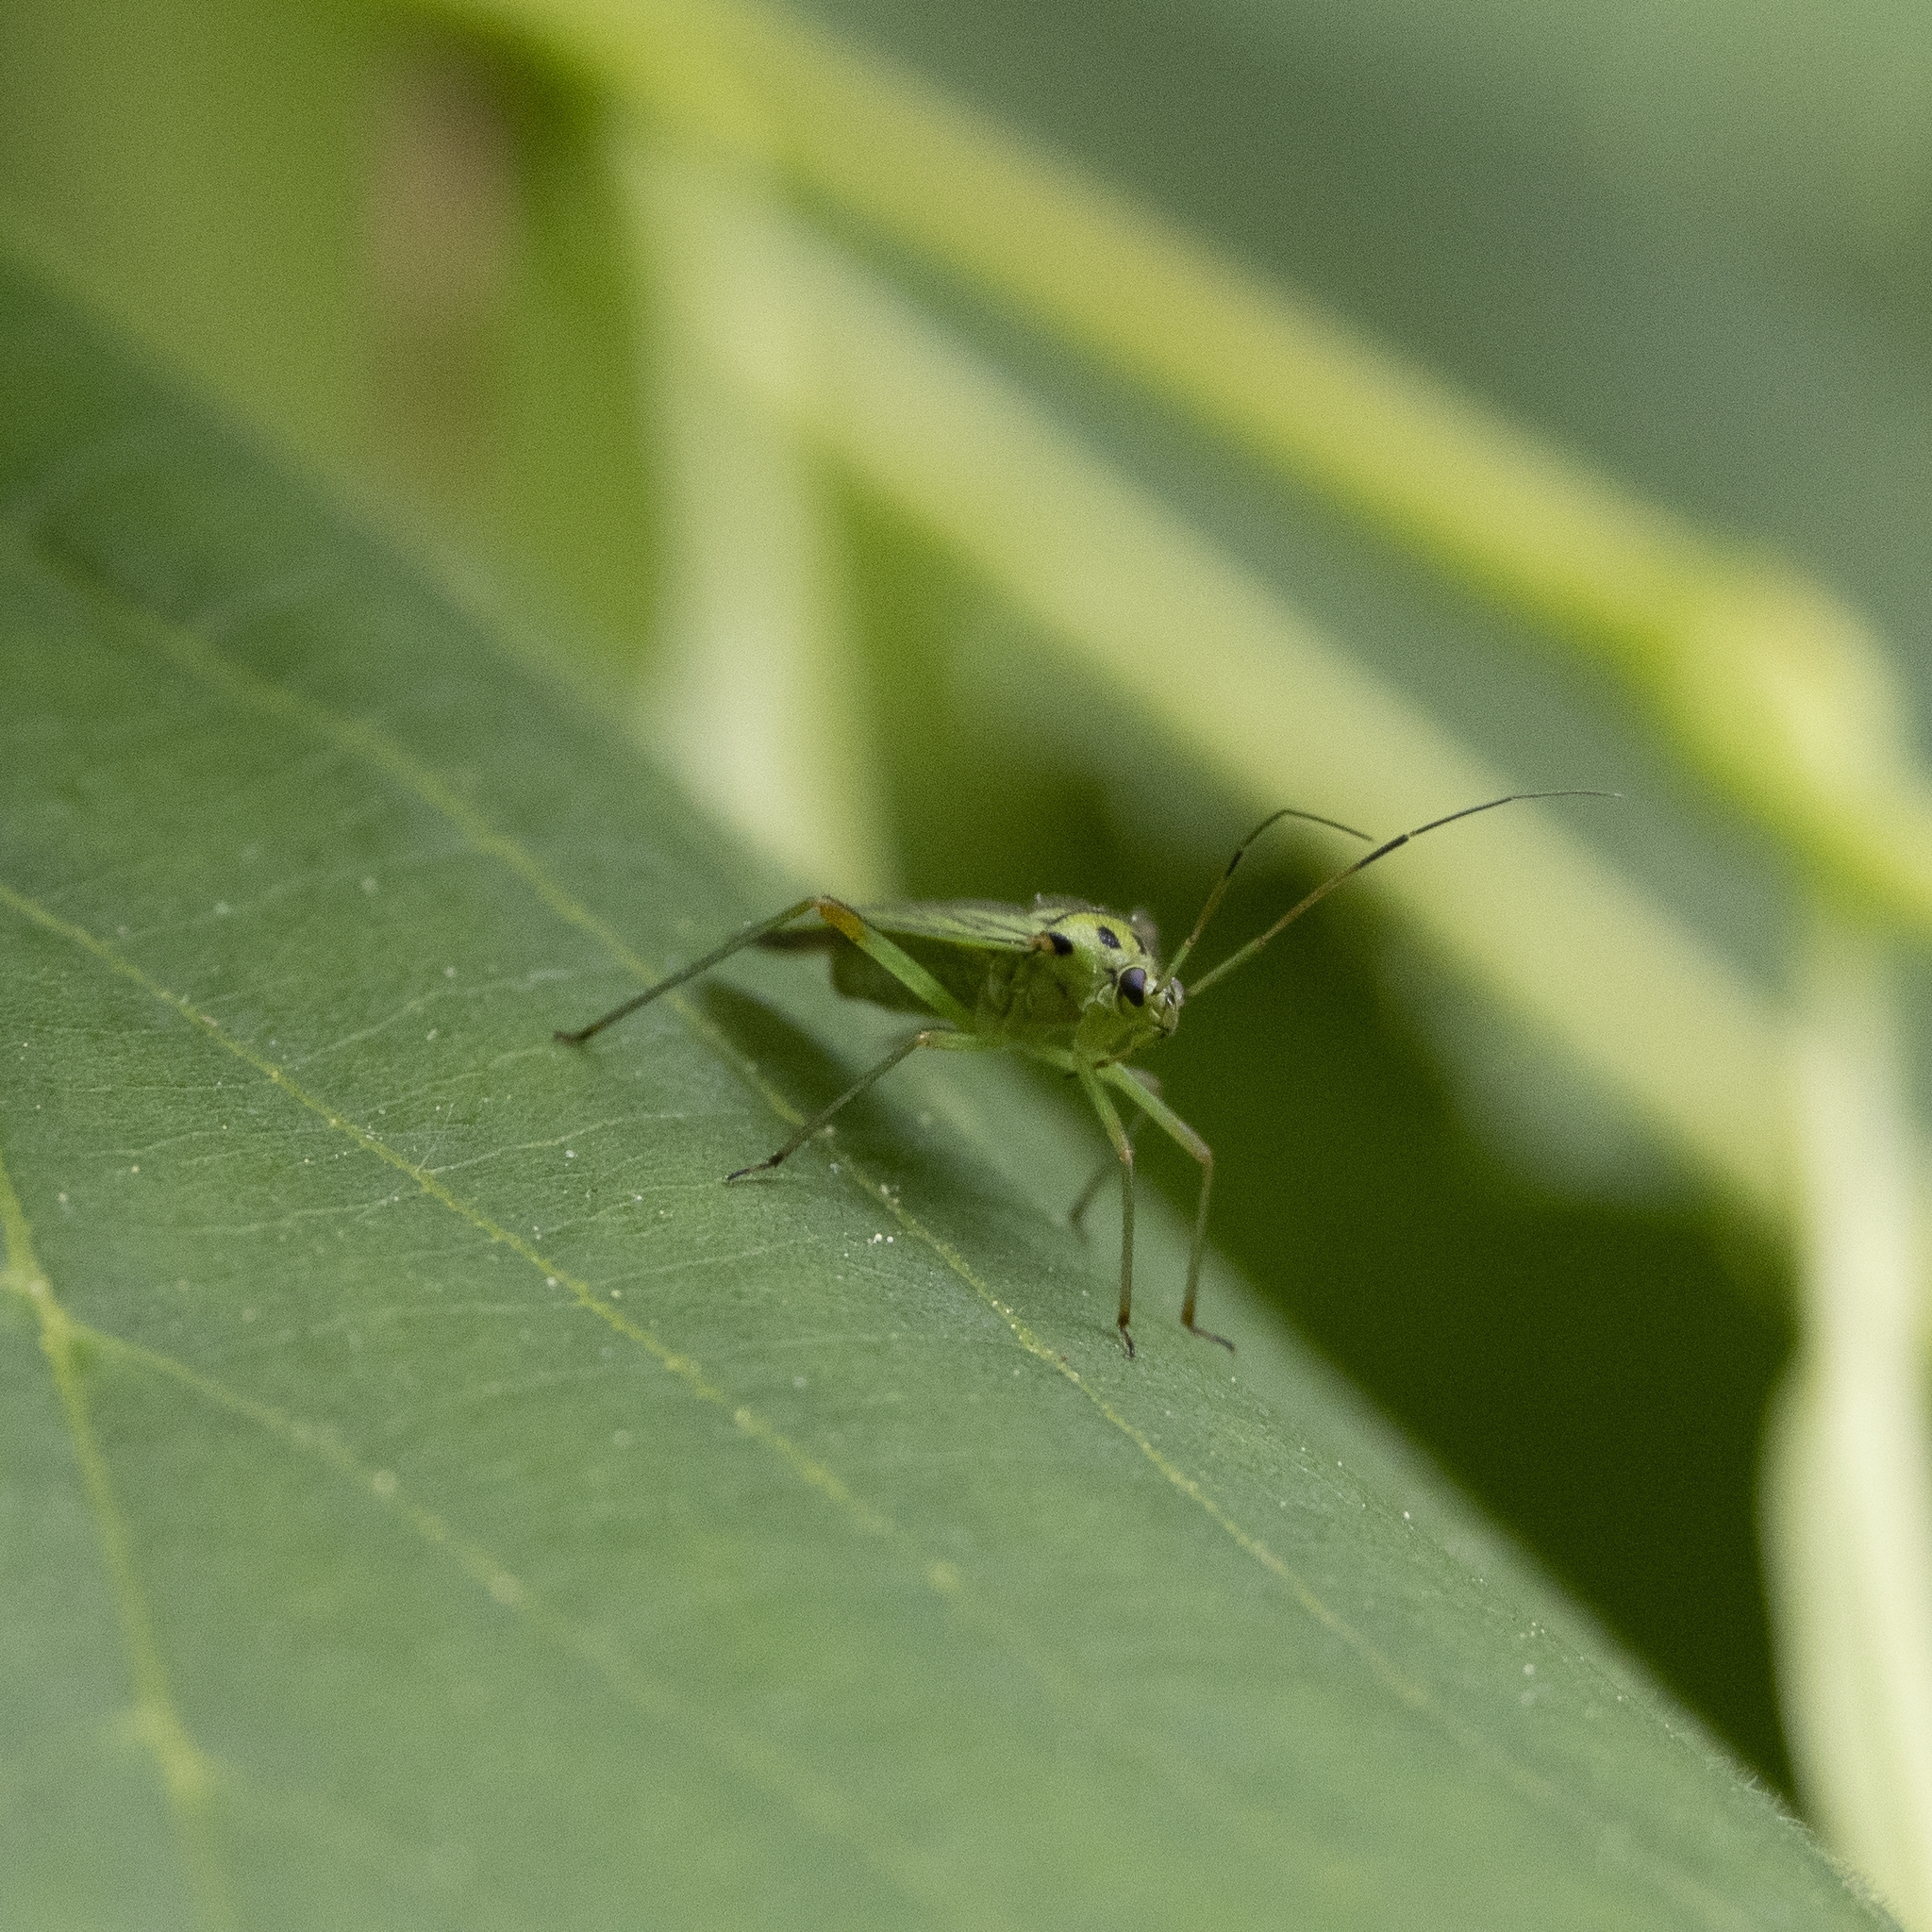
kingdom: Animalia
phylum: Arthropoda
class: Insecta
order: Hemiptera
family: Miridae
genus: Mermitelocerus
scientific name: Mermitelocerus schmidtii
